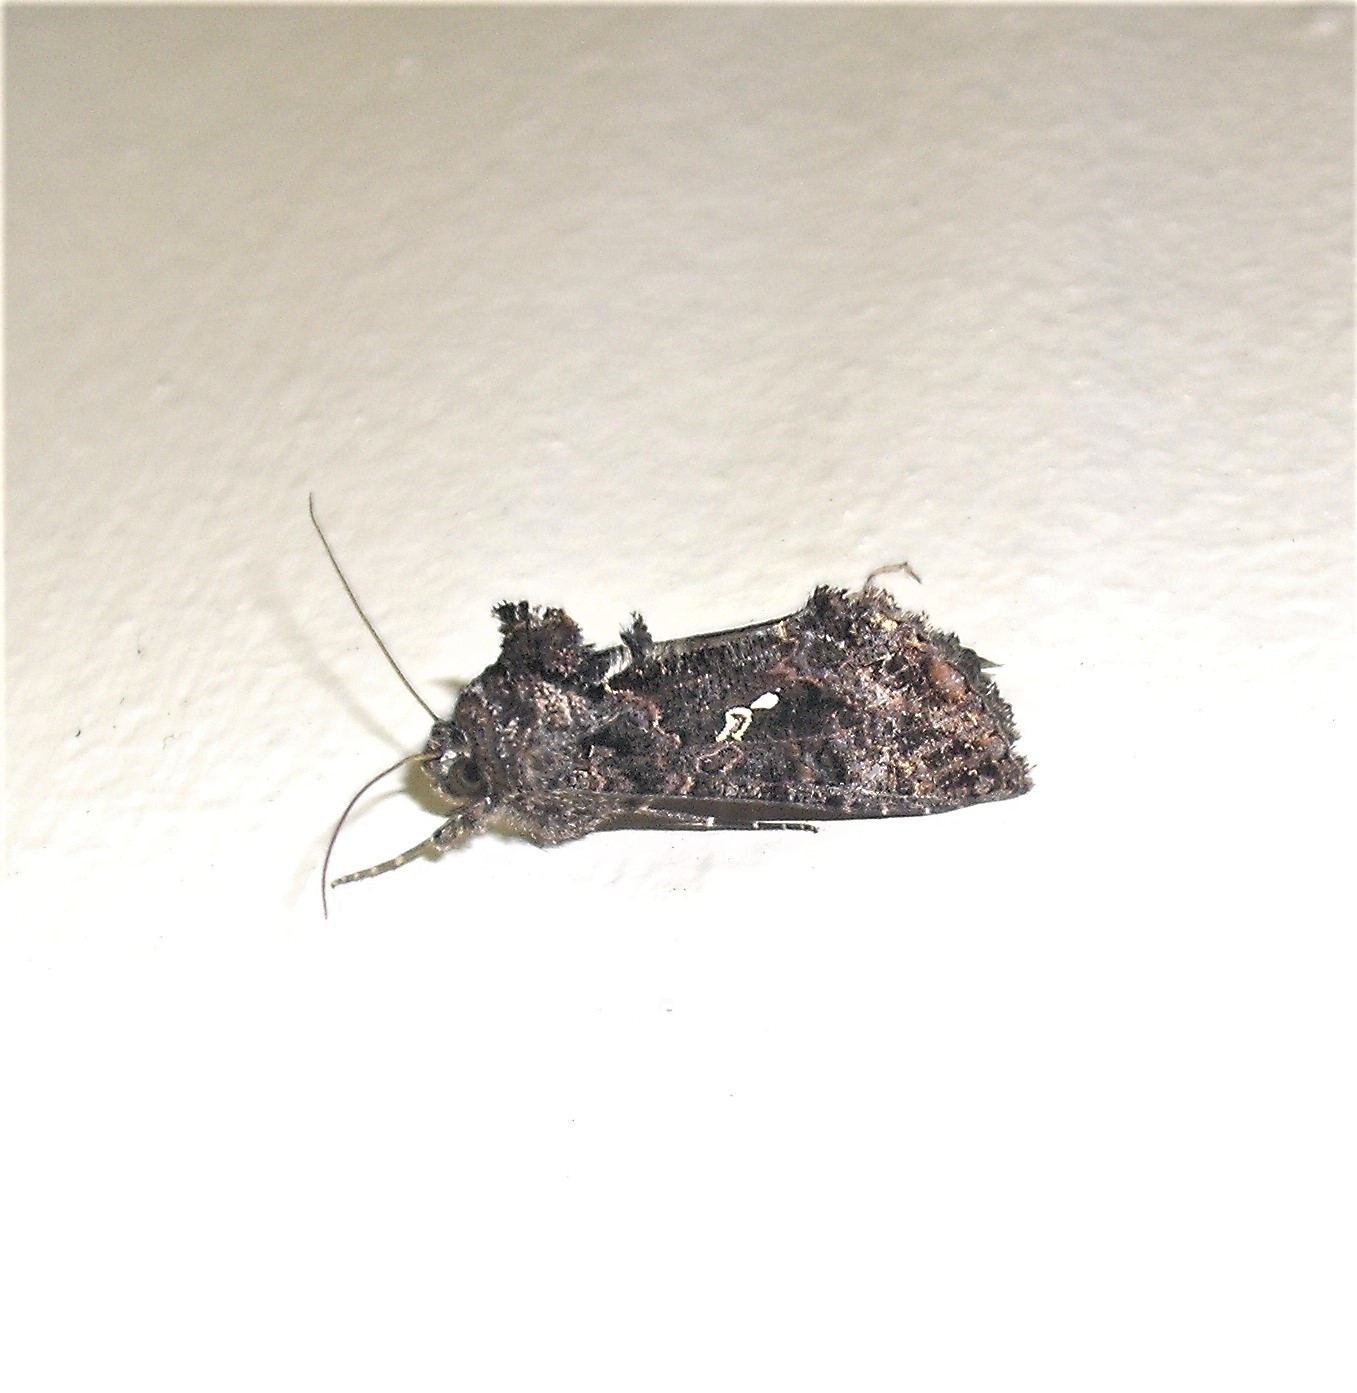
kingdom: Animalia
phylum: Arthropoda
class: Insecta
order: Lepidoptera
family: Noctuidae
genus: Ctenoplusia
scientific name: Ctenoplusia limbirena
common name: Scar bank gem
